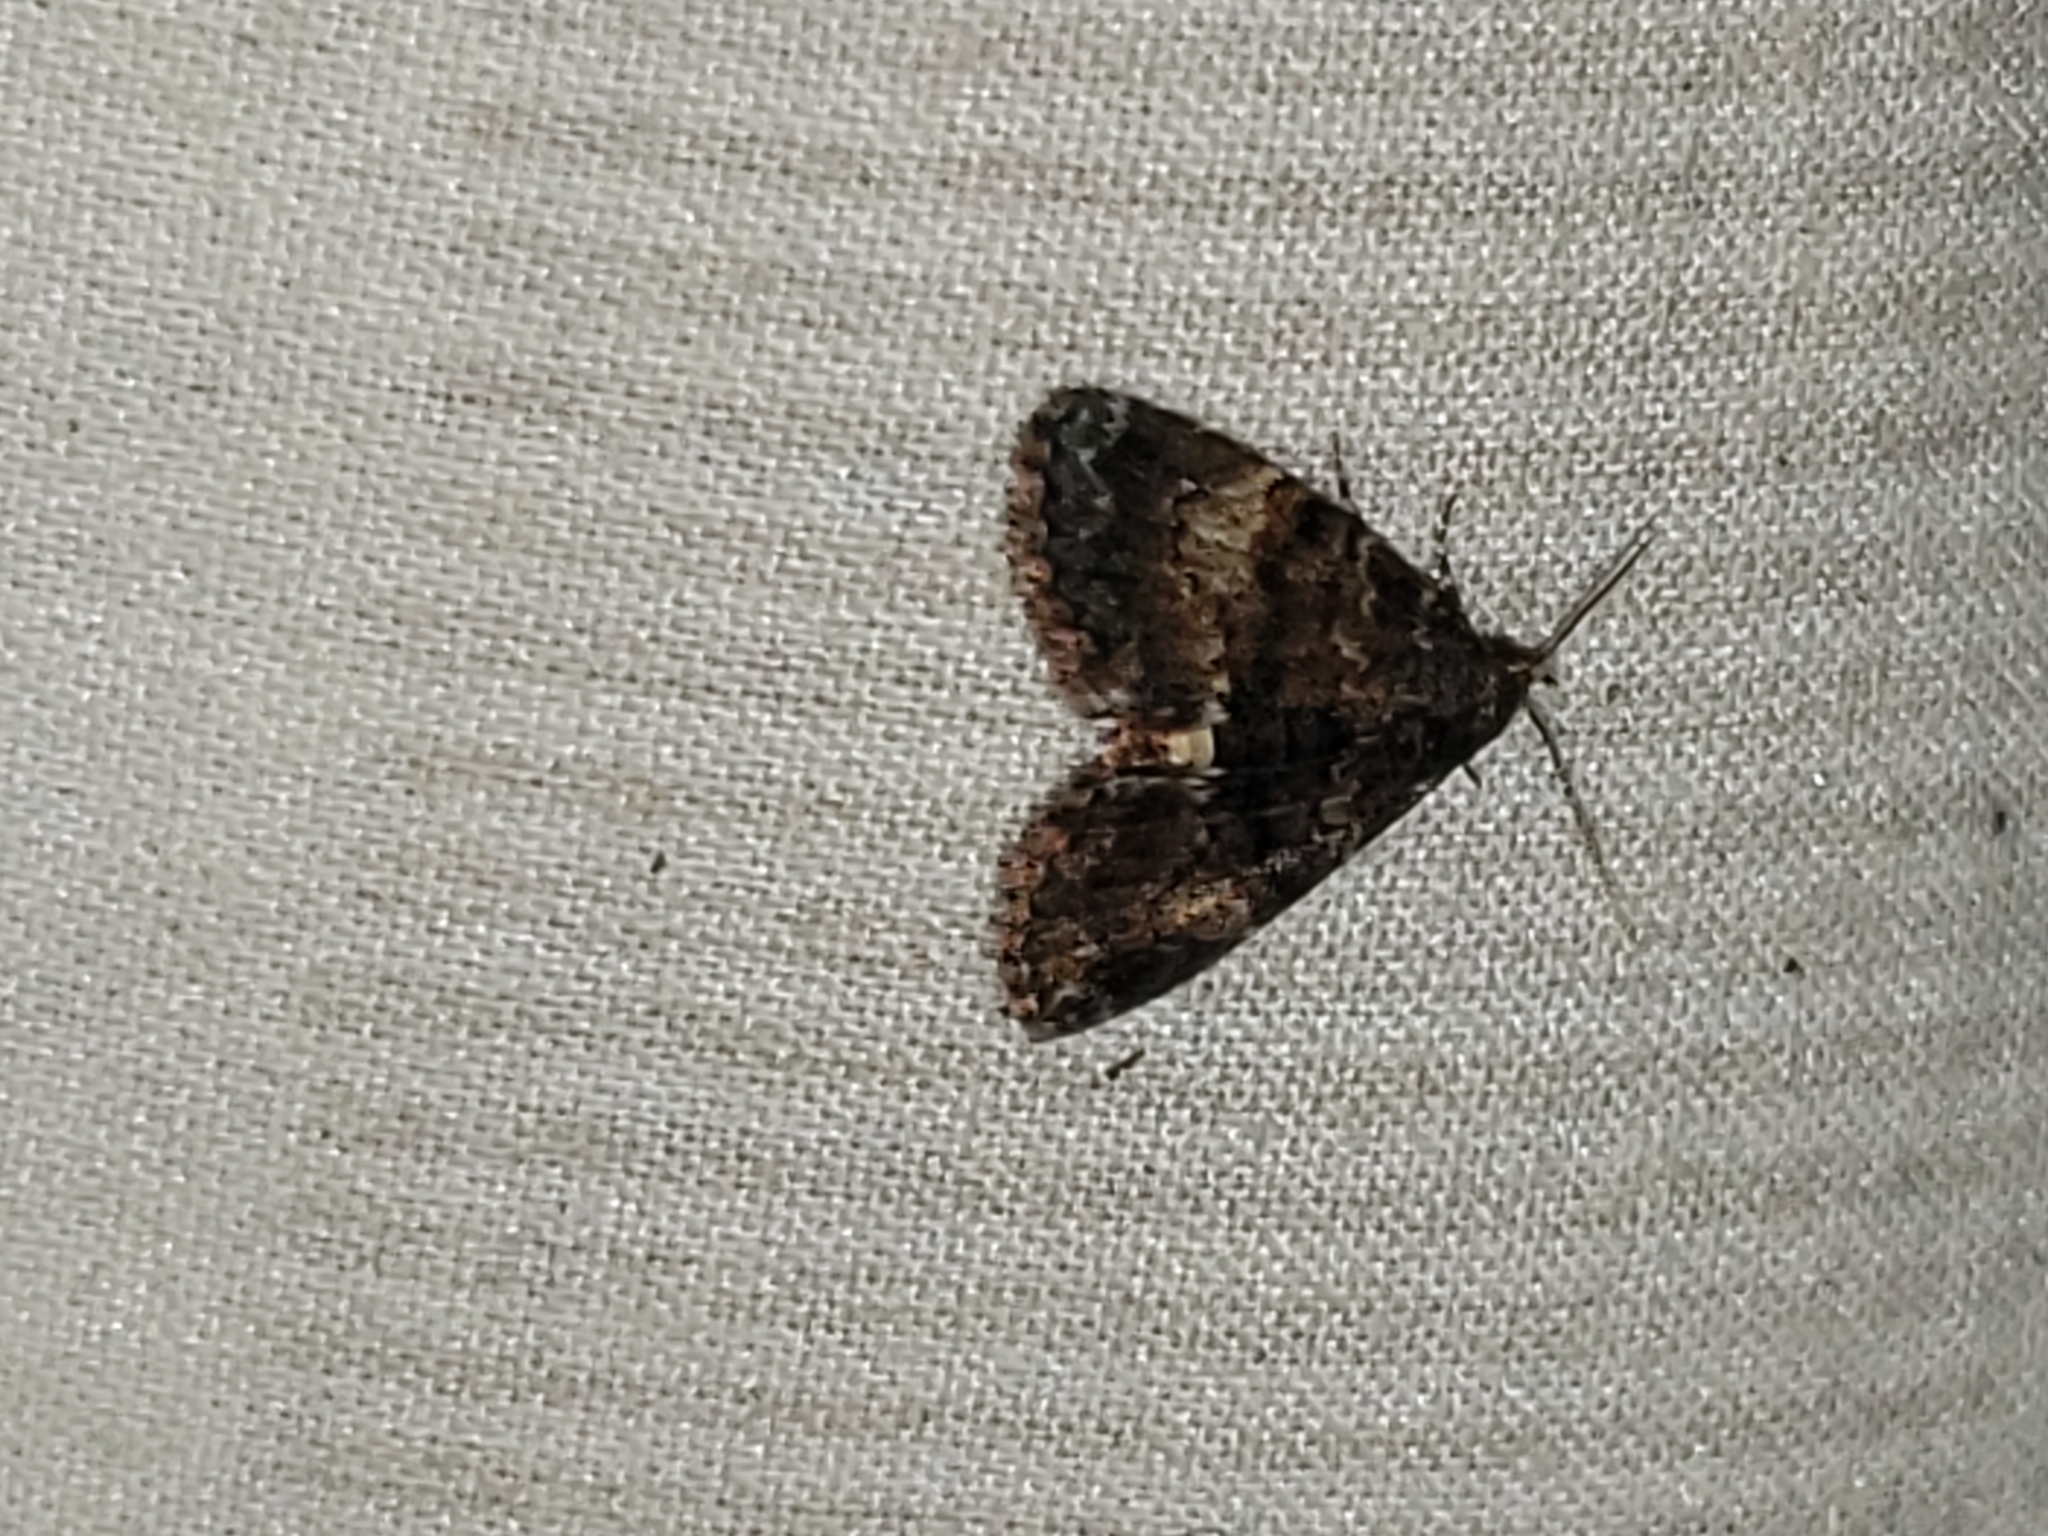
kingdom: Animalia
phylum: Arthropoda
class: Insecta
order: Lepidoptera
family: Erebidae
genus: Metalectra
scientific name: Metalectra richardsi
